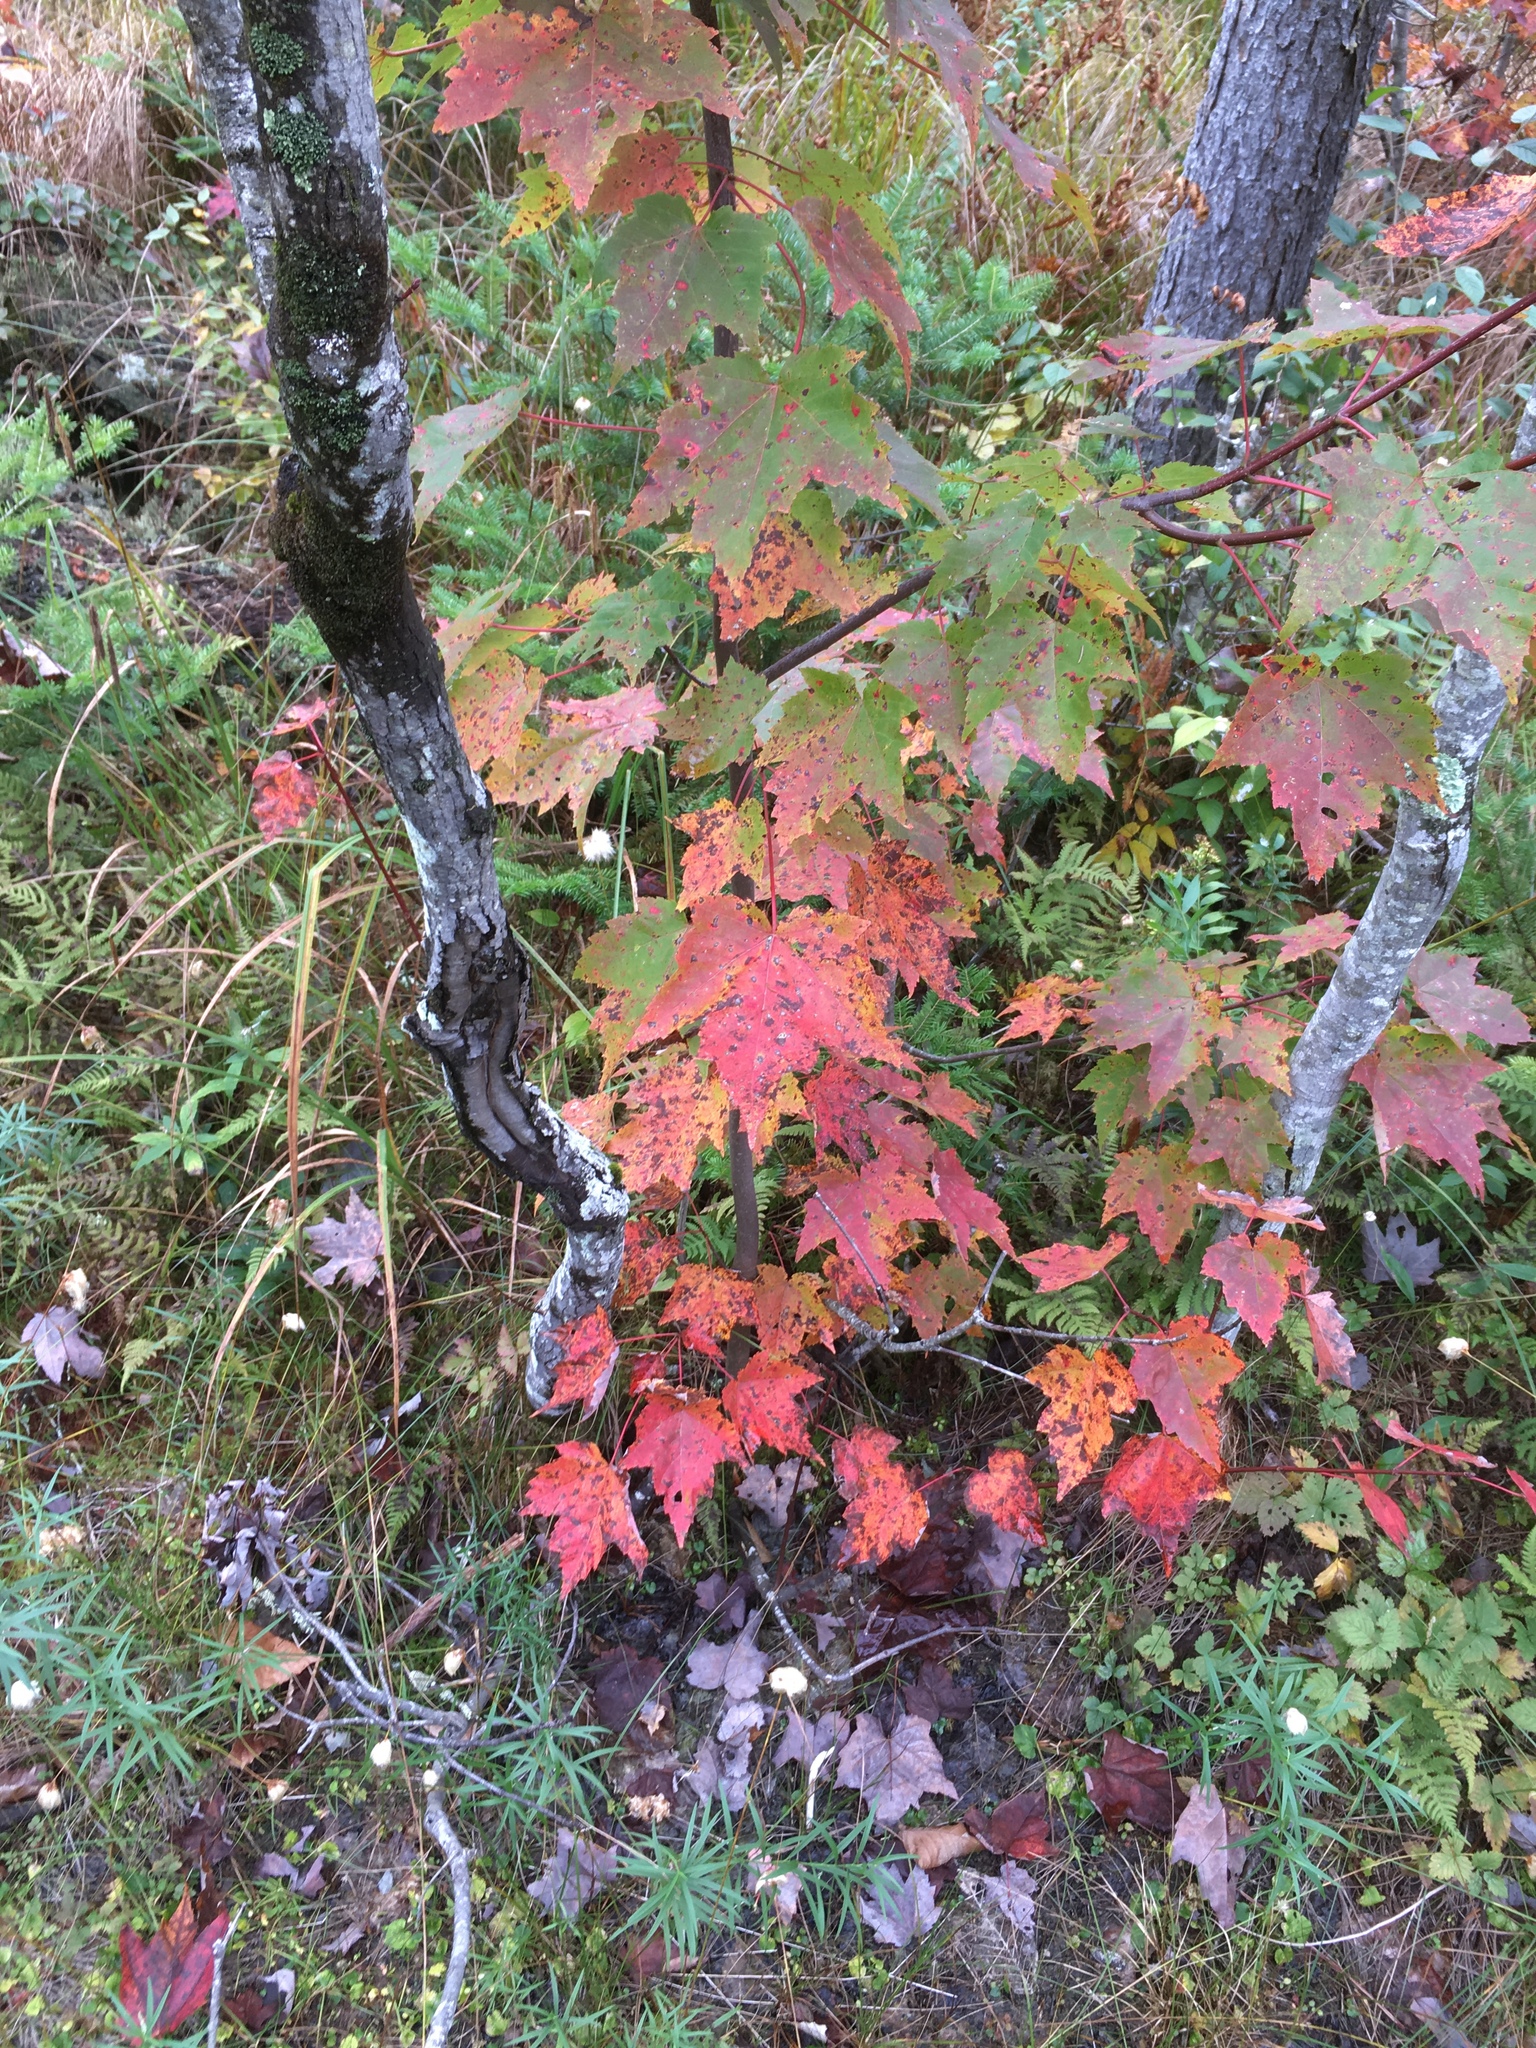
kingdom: Plantae
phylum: Tracheophyta
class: Magnoliopsida
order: Sapindales
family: Sapindaceae
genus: Acer
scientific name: Acer rubrum
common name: Red maple
